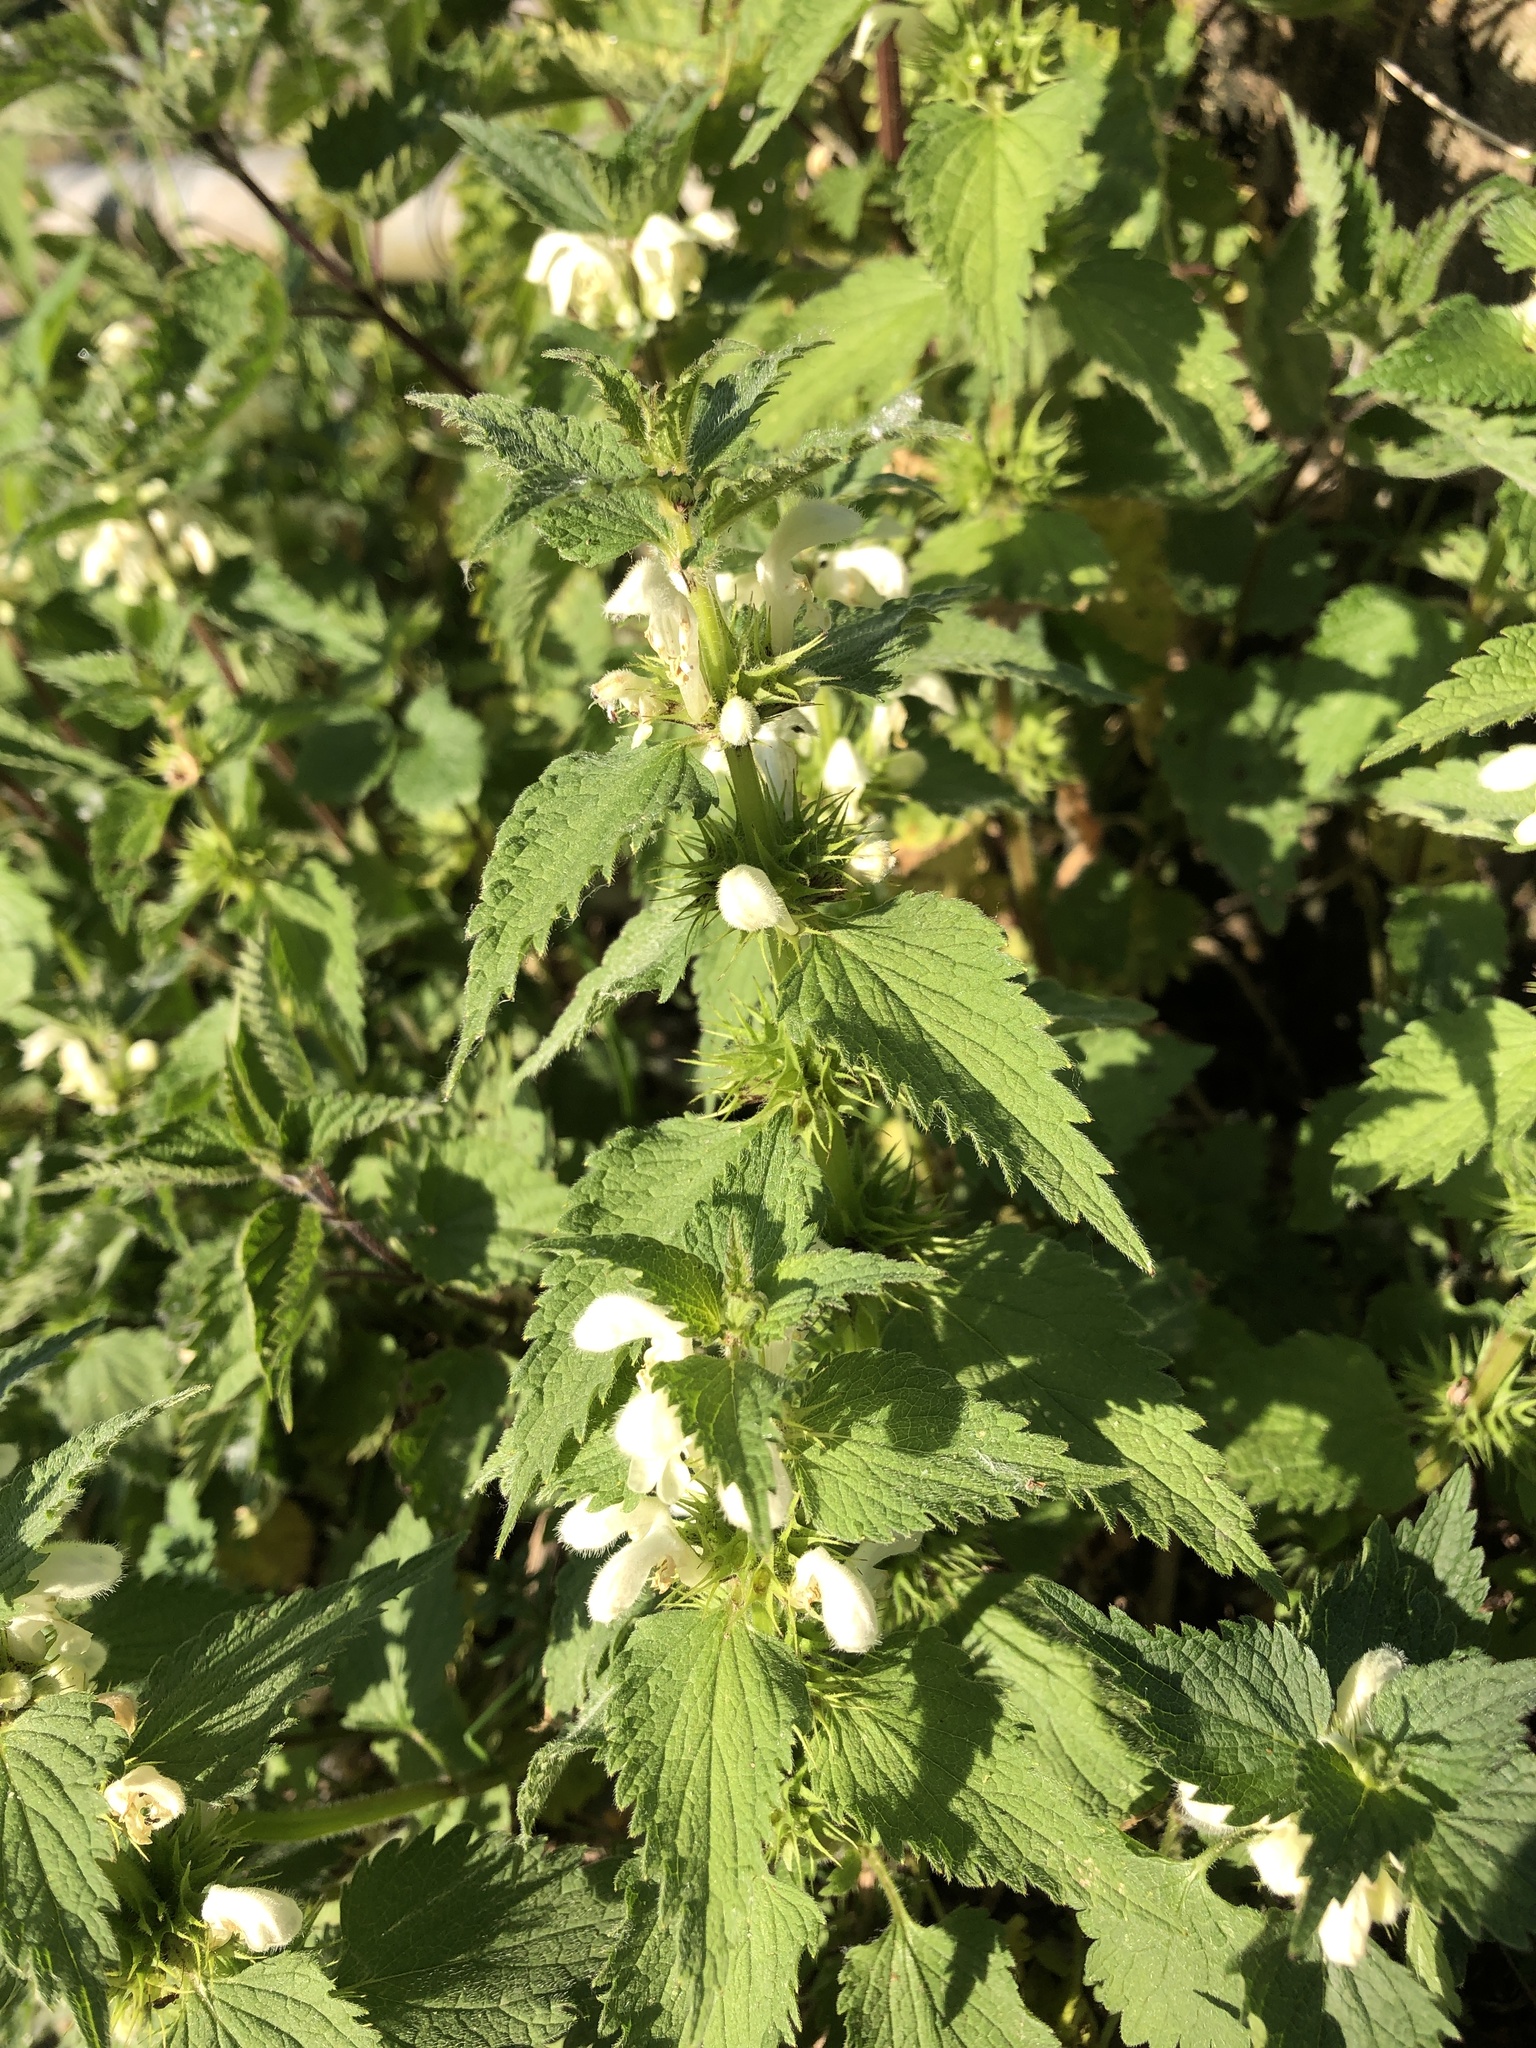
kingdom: Plantae
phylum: Tracheophyta
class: Magnoliopsida
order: Lamiales
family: Lamiaceae
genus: Lamium
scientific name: Lamium album
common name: White dead-nettle
